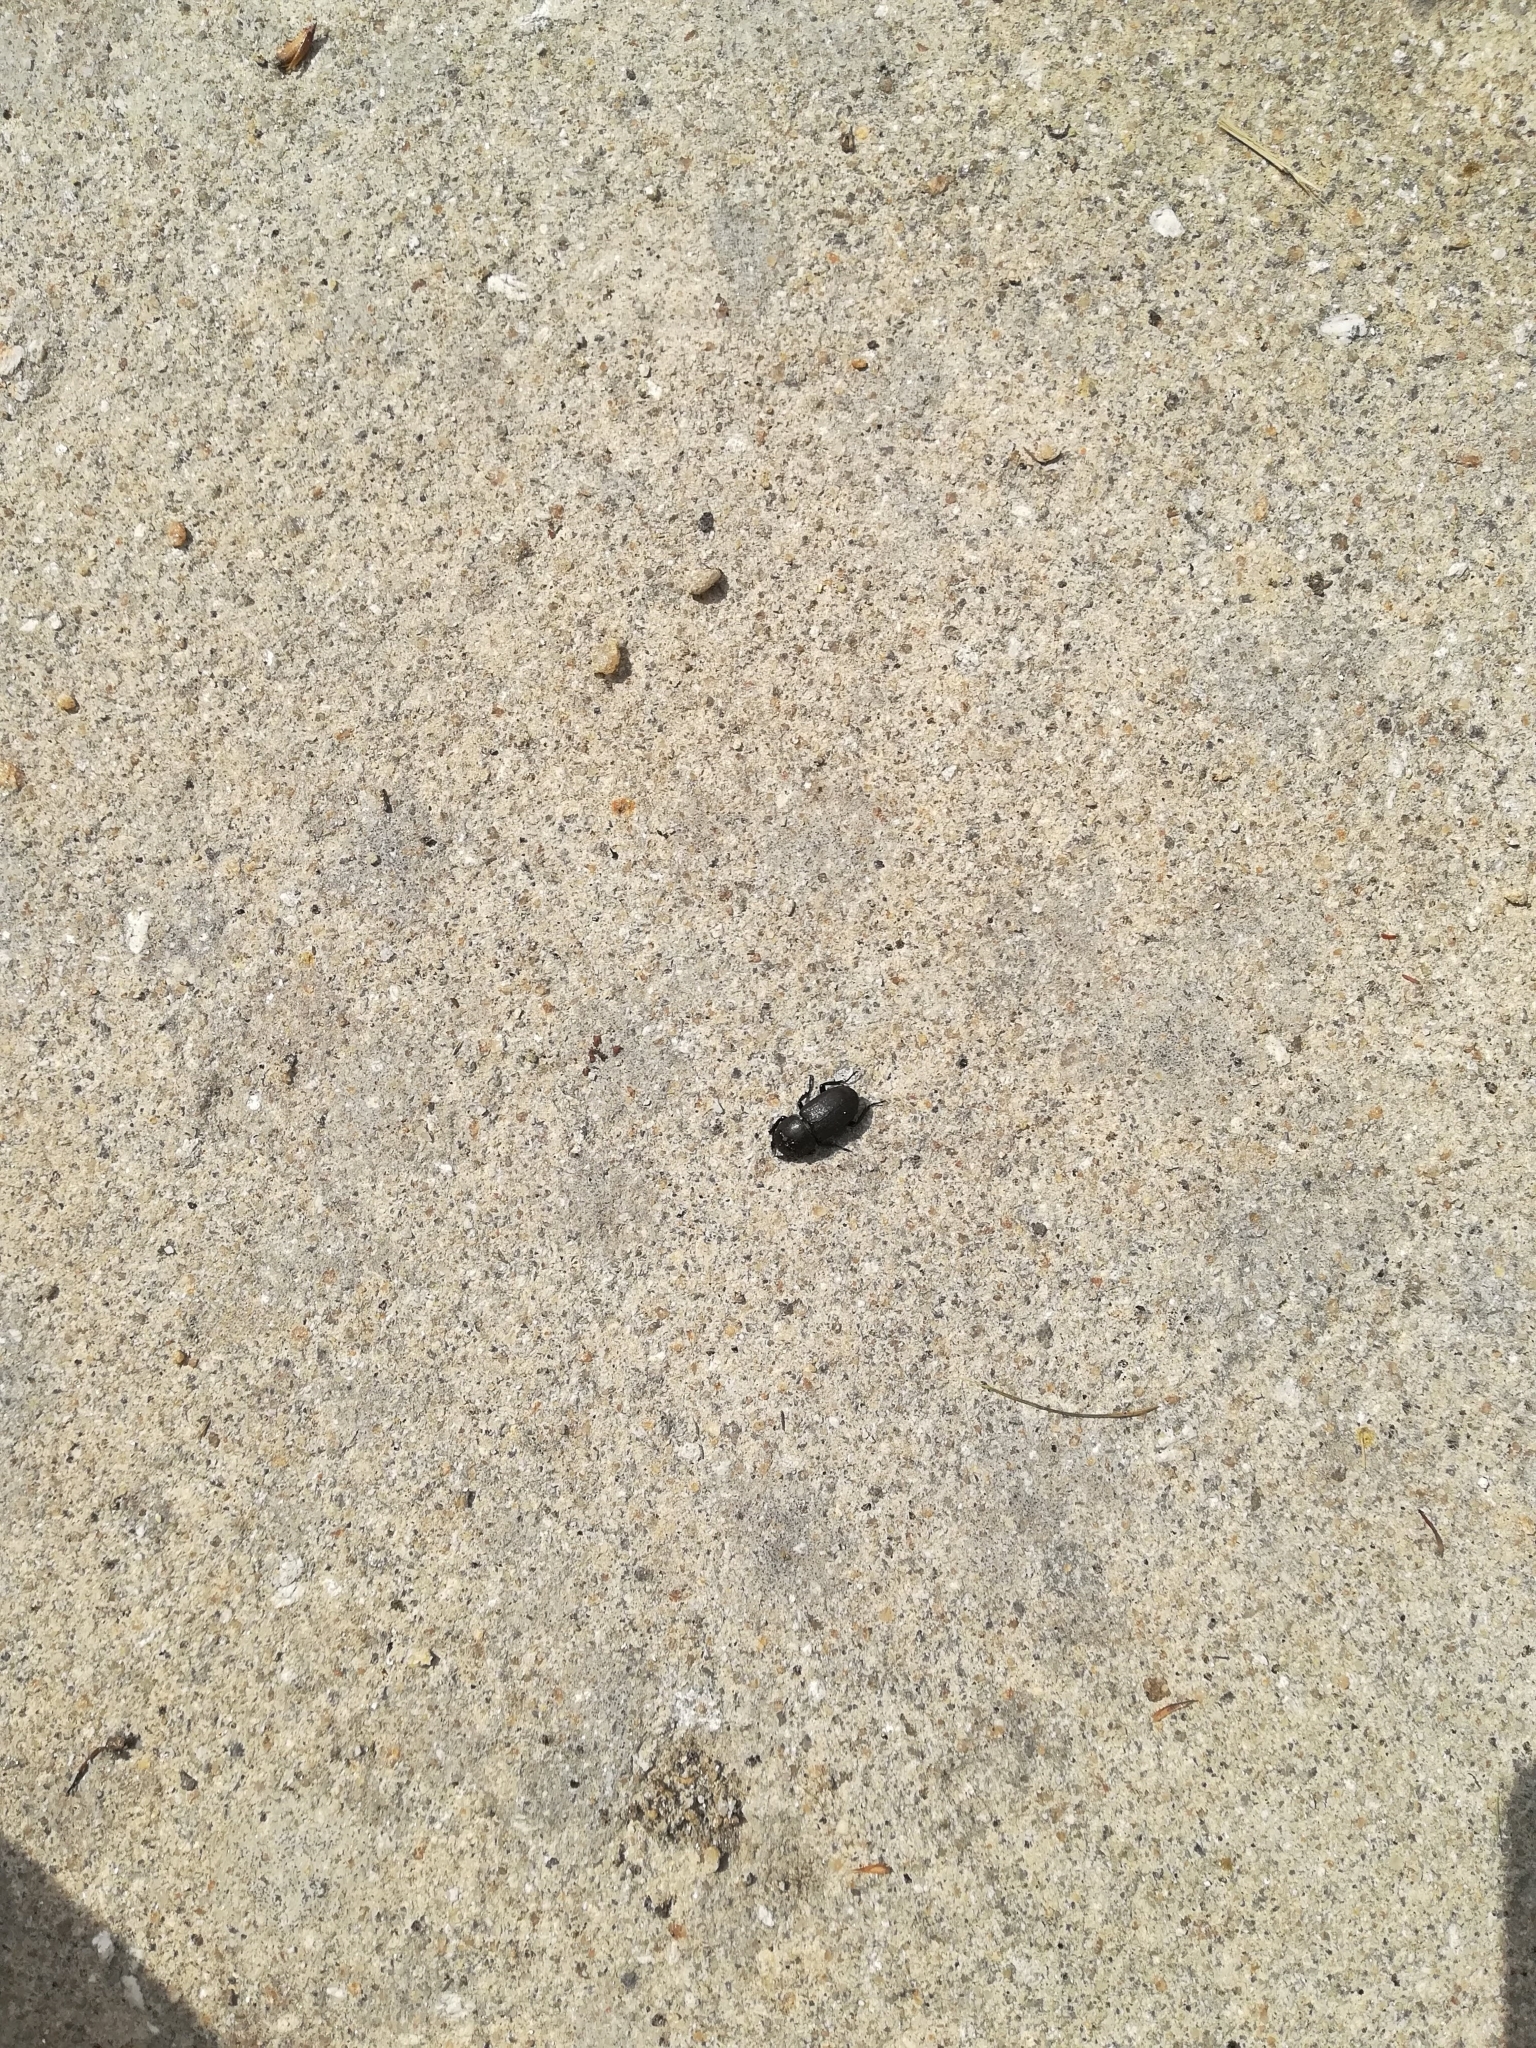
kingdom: Animalia
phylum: Arthropoda
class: Insecta
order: Coleoptera
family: Lucanidae
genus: Dorcus
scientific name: Dorcus parallelipipedus
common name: Lesser stag beetle
